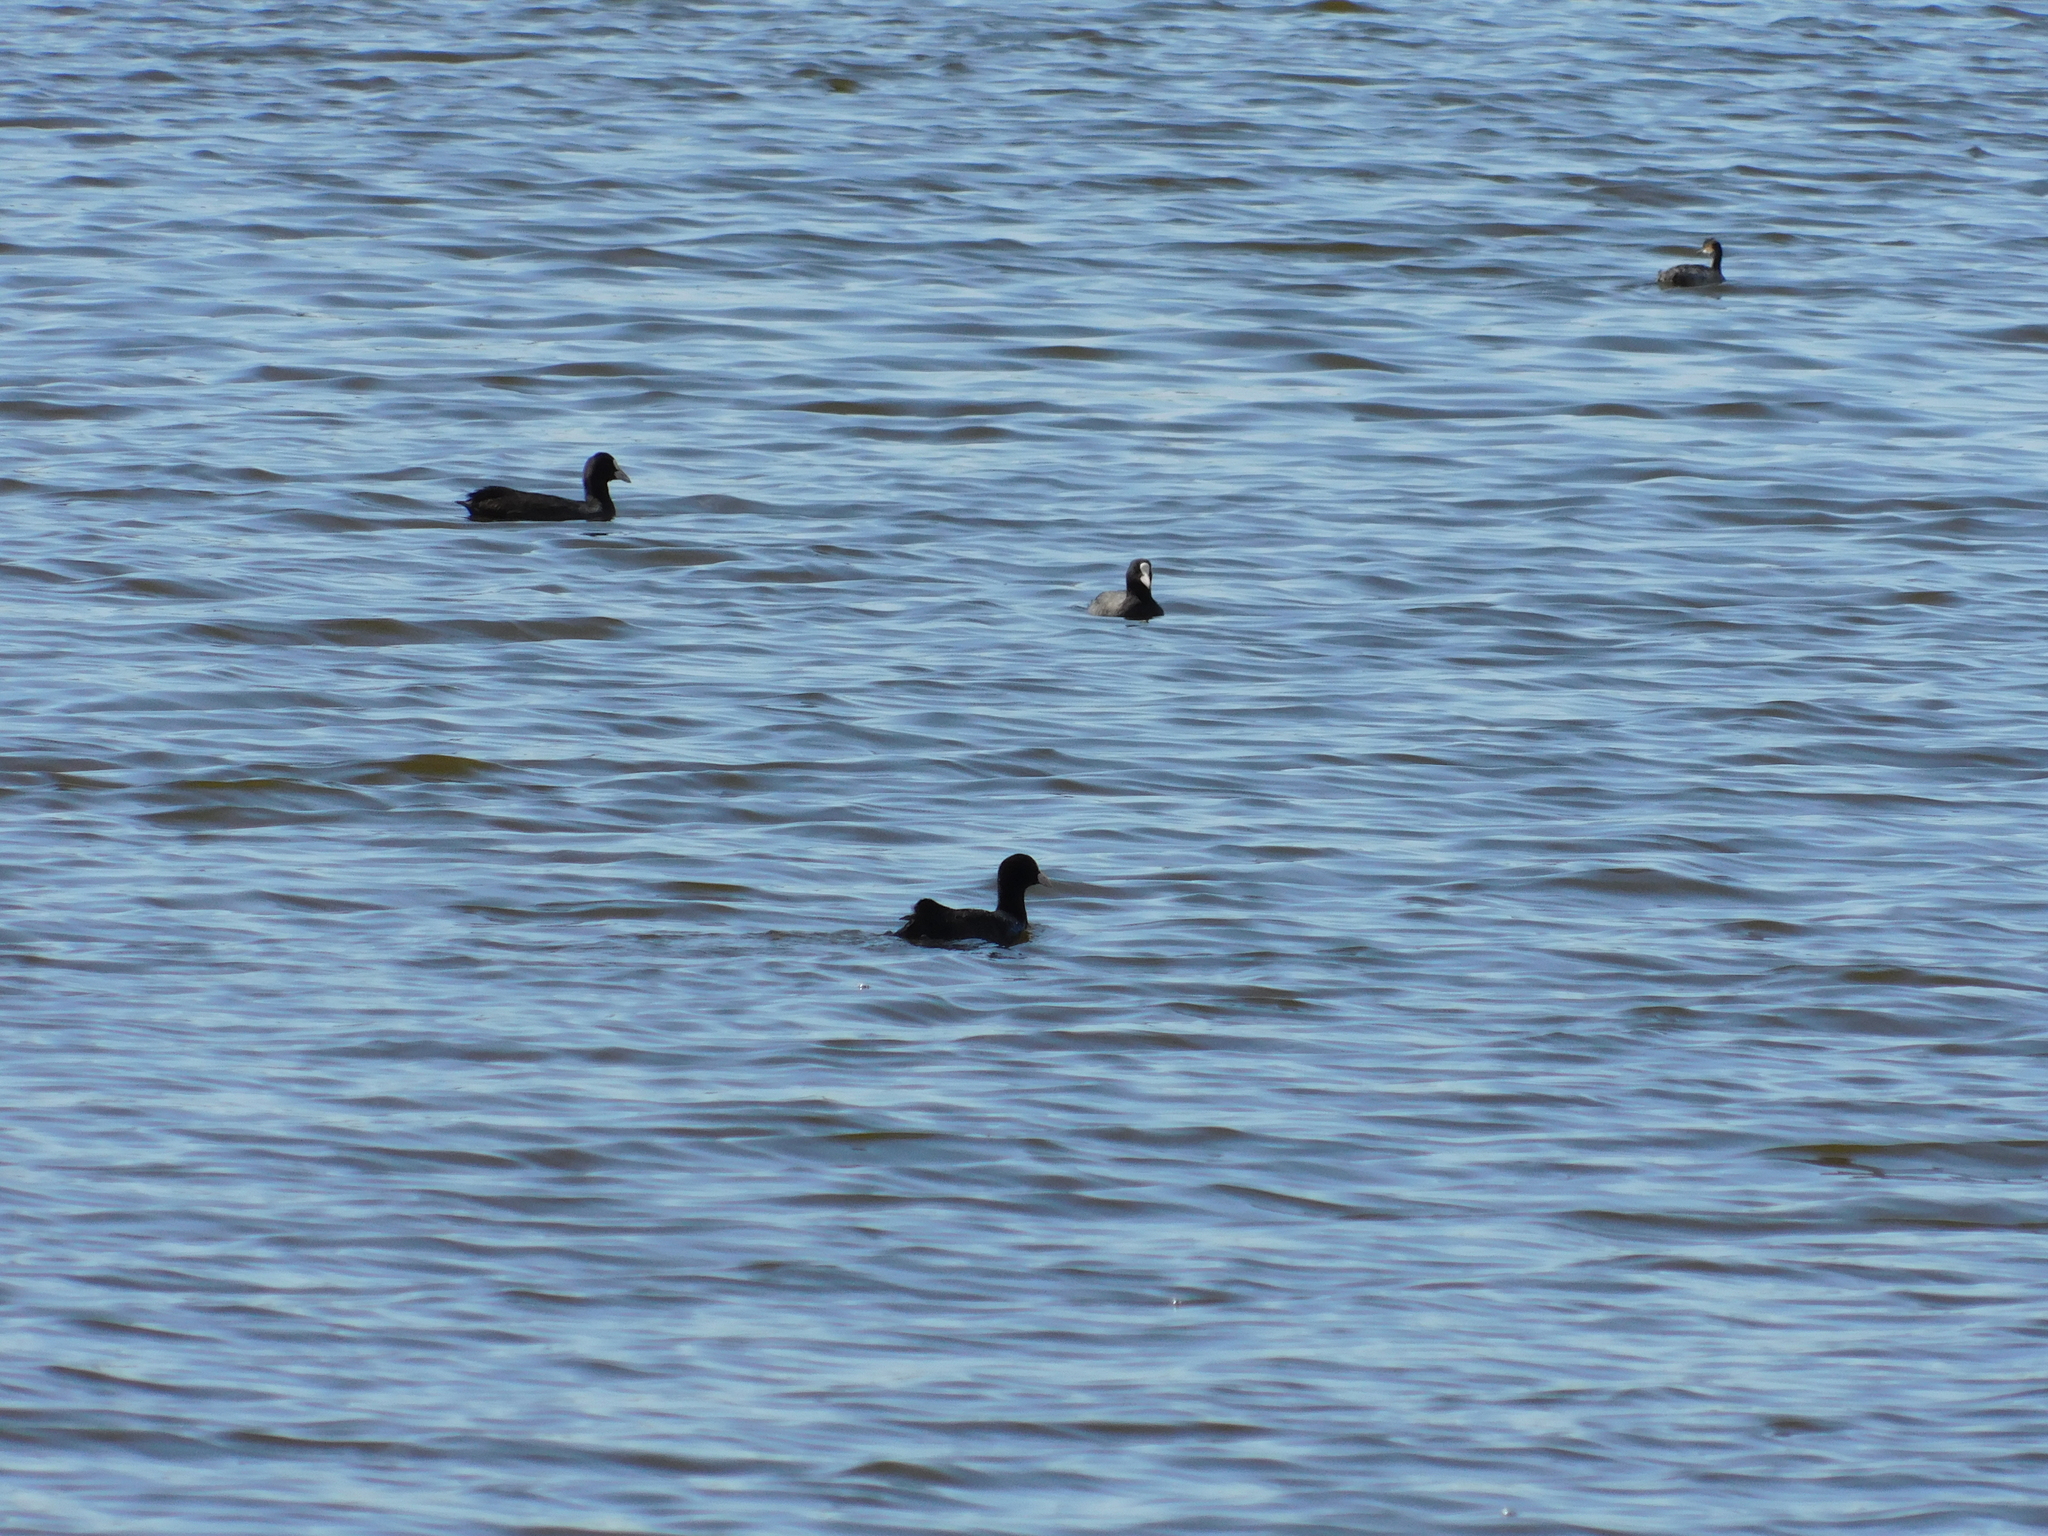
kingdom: Animalia
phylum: Chordata
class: Aves
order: Gruiformes
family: Rallidae
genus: Fulica
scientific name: Fulica atra
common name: Eurasian coot
